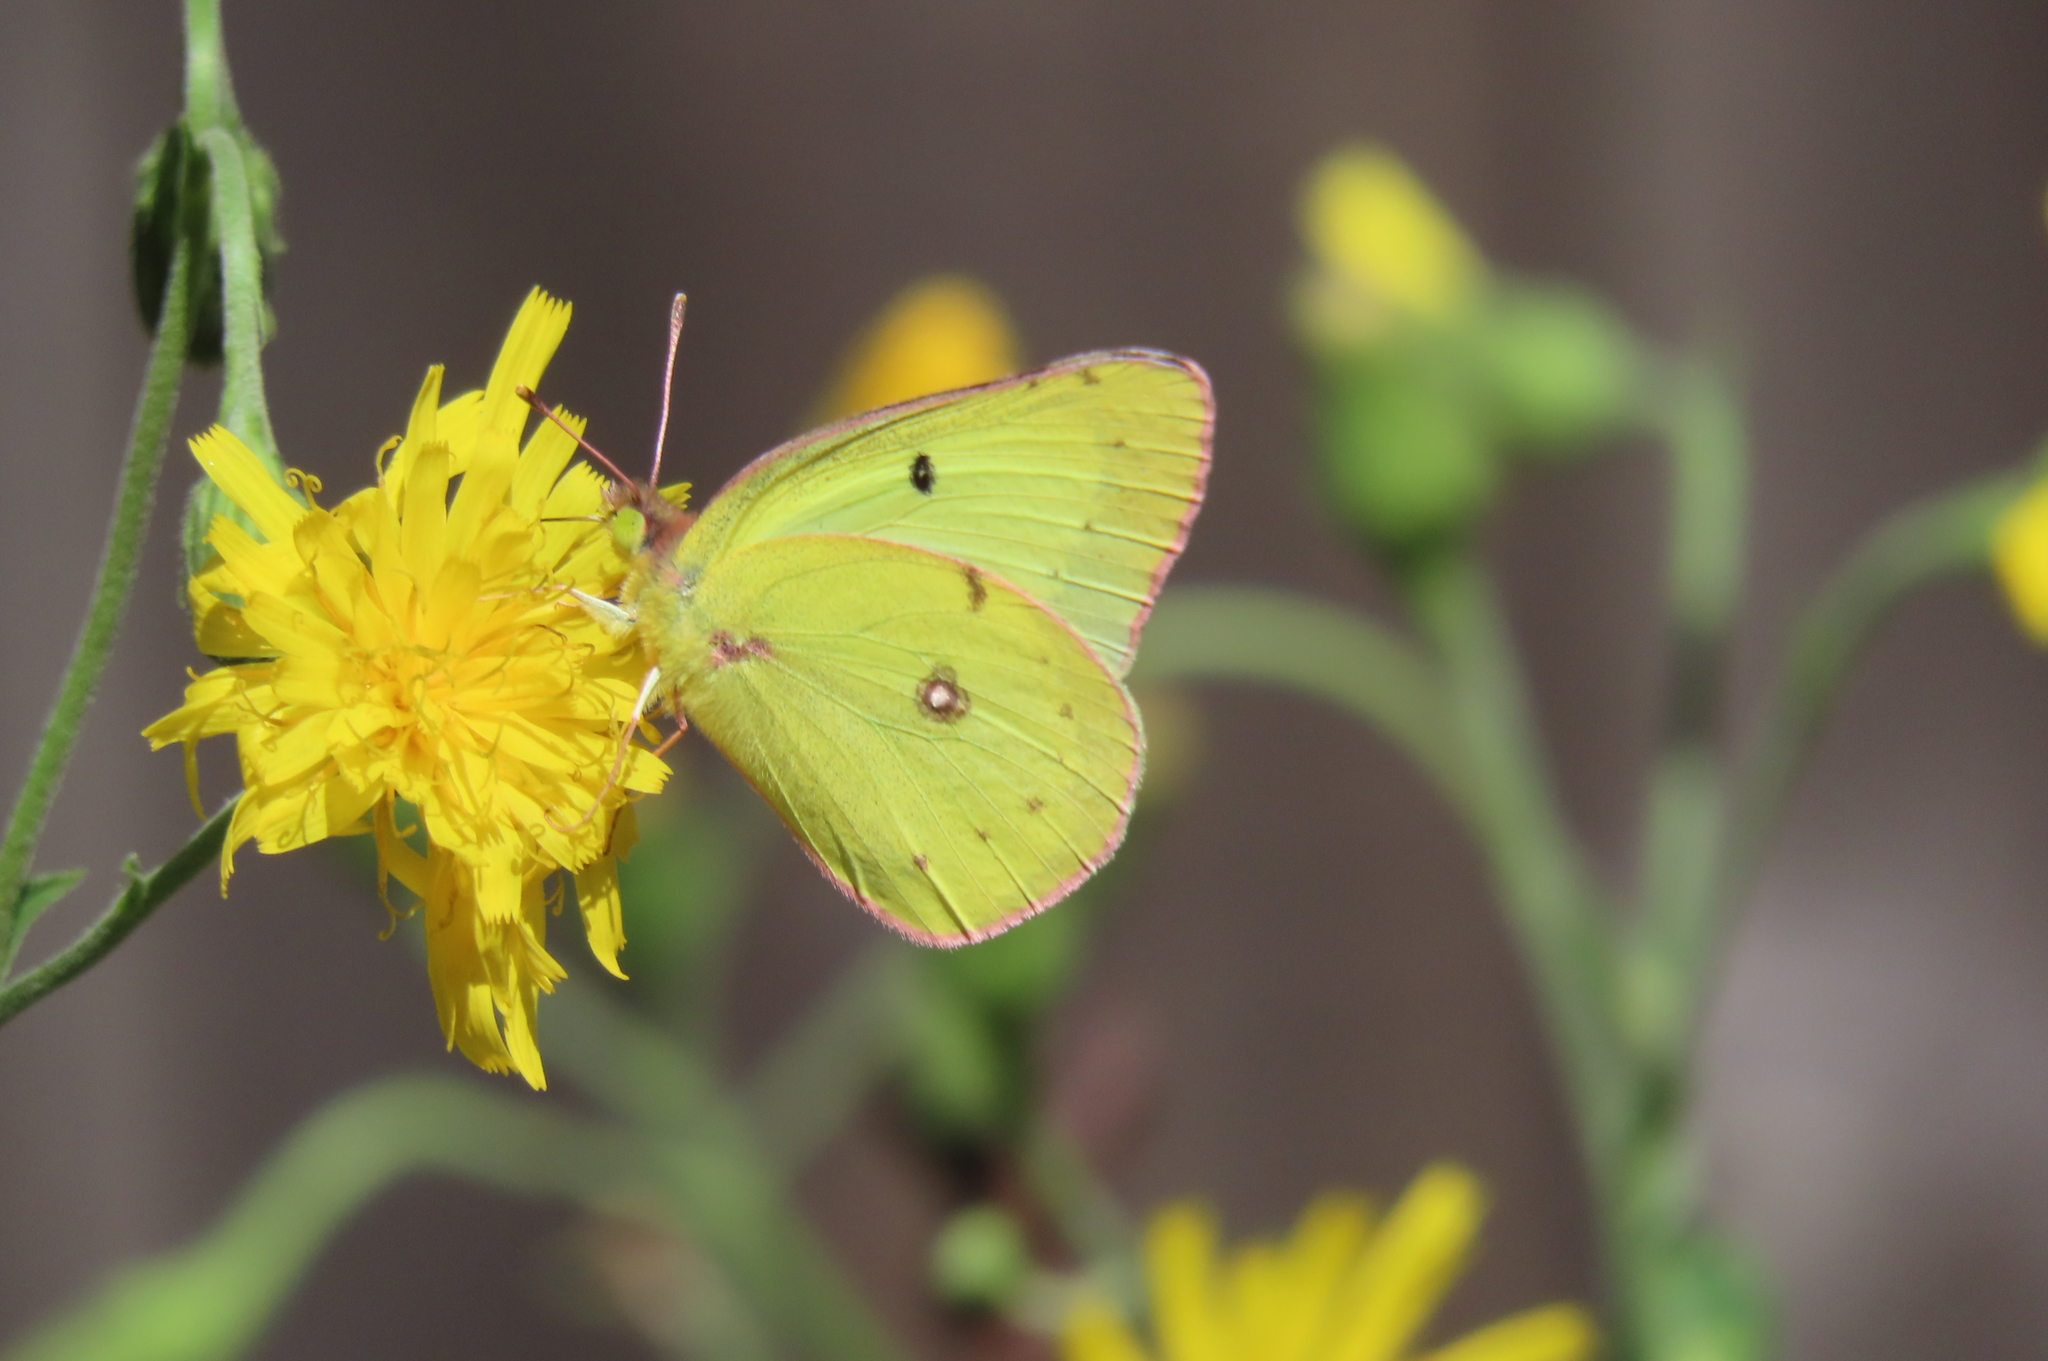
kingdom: Animalia
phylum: Arthropoda
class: Insecta
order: Lepidoptera
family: Pieridae
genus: Colias
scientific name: Colias philodice
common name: Clouded sulphur
